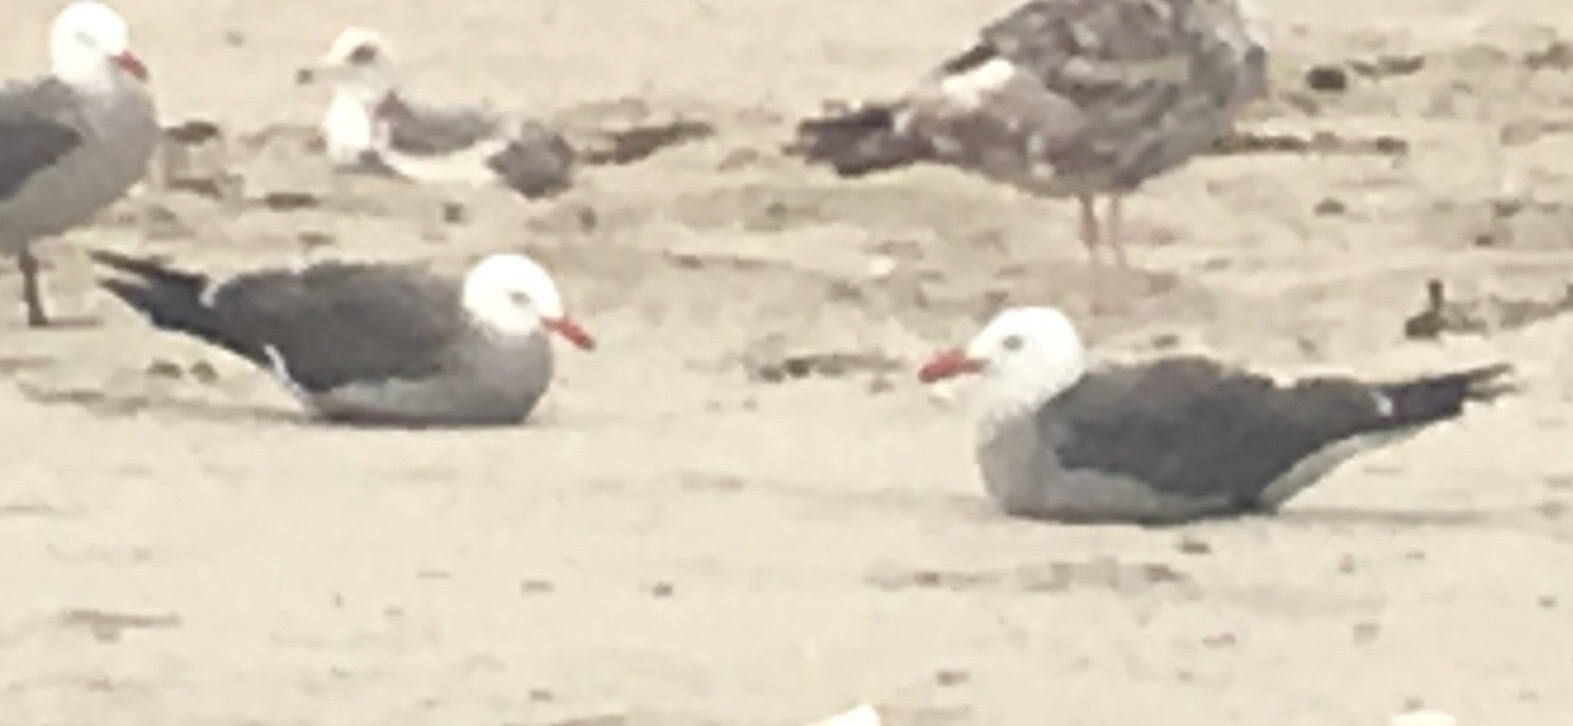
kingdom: Animalia
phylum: Chordata
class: Aves
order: Charadriiformes
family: Laridae
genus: Larus
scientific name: Larus heermanni
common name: Heermann's gull
